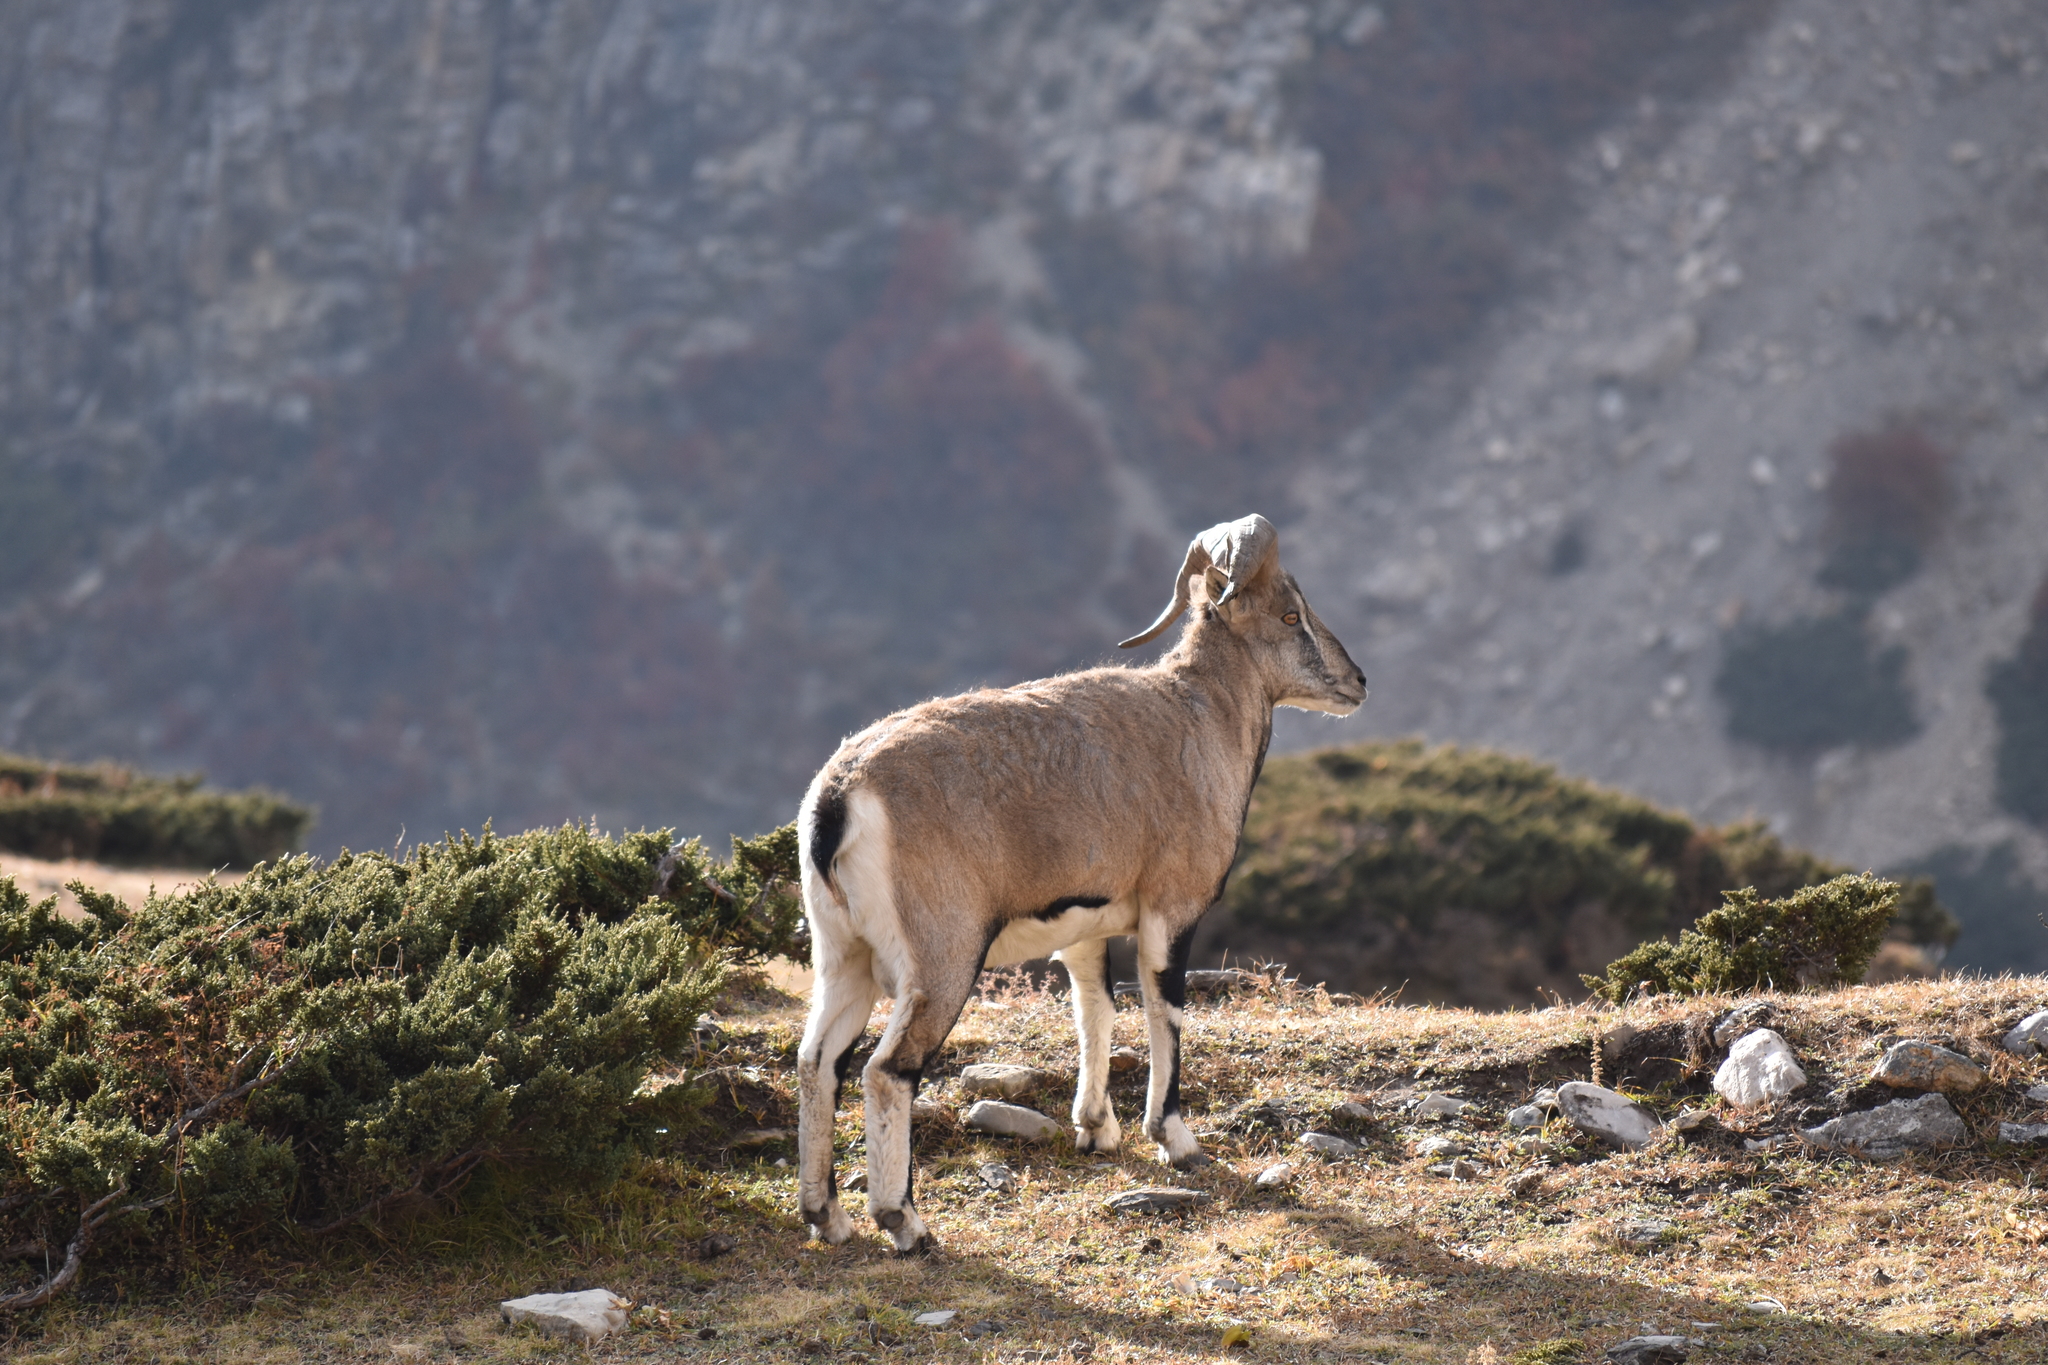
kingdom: Animalia
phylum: Chordata
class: Mammalia
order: Artiodactyla
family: Bovidae
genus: Pseudois
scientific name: Pseudois nayaur
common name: Bharal
